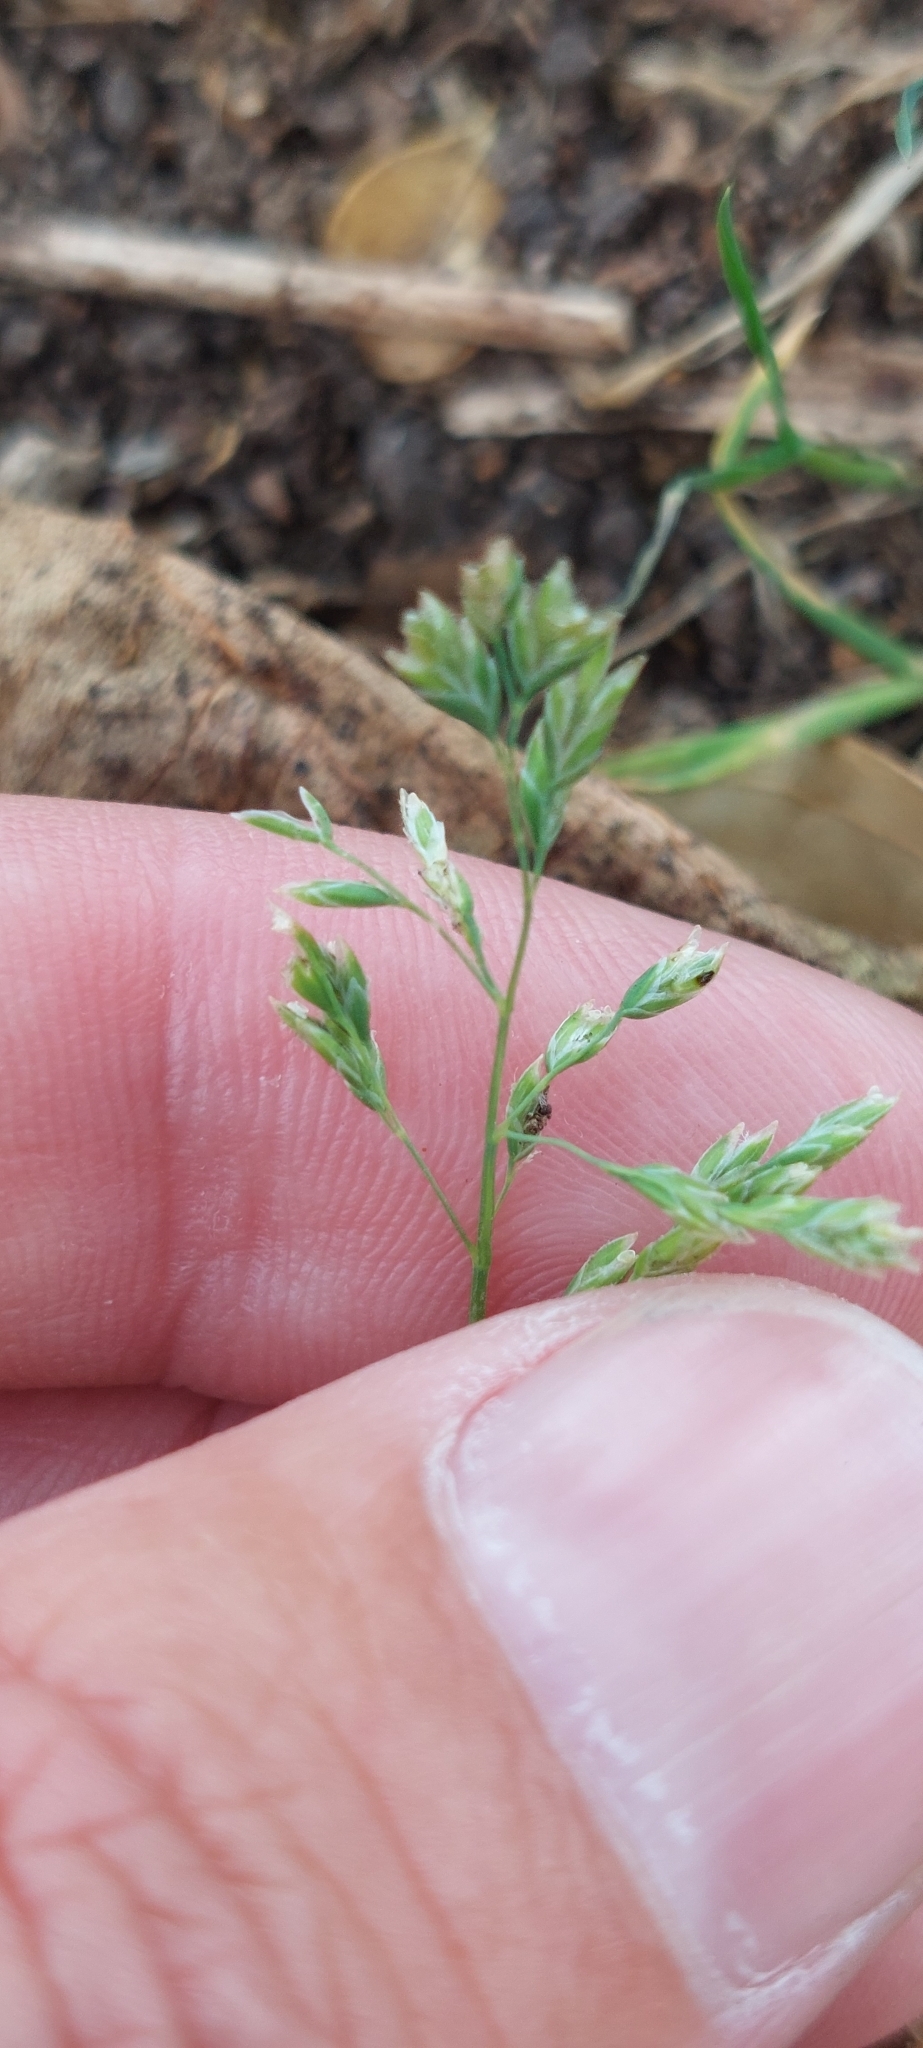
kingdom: Plantae
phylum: Tracheophyta
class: Liliopsida
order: Poales
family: Poaceae
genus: Poa
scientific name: Poa annua
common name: Annual bluegrass
